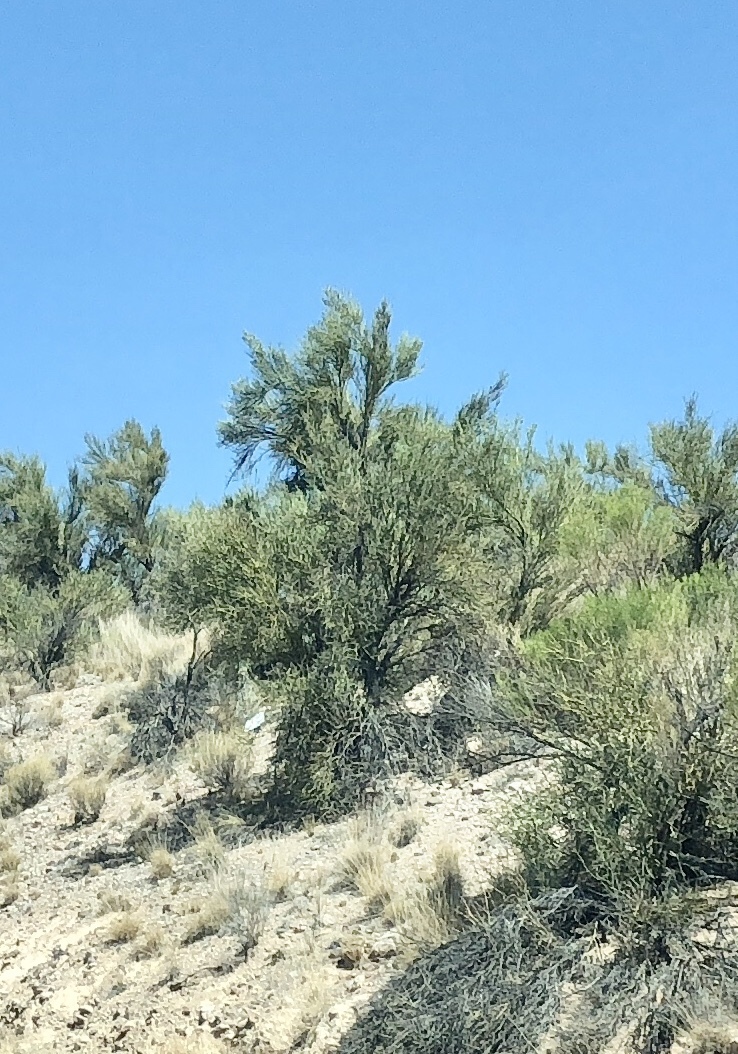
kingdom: Plantae
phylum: Tracheophyta
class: Magnoliopsida
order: Celastrales
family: Celastraceae
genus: Canotia
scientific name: Canotia holacantha
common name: Crucifixion thorns
